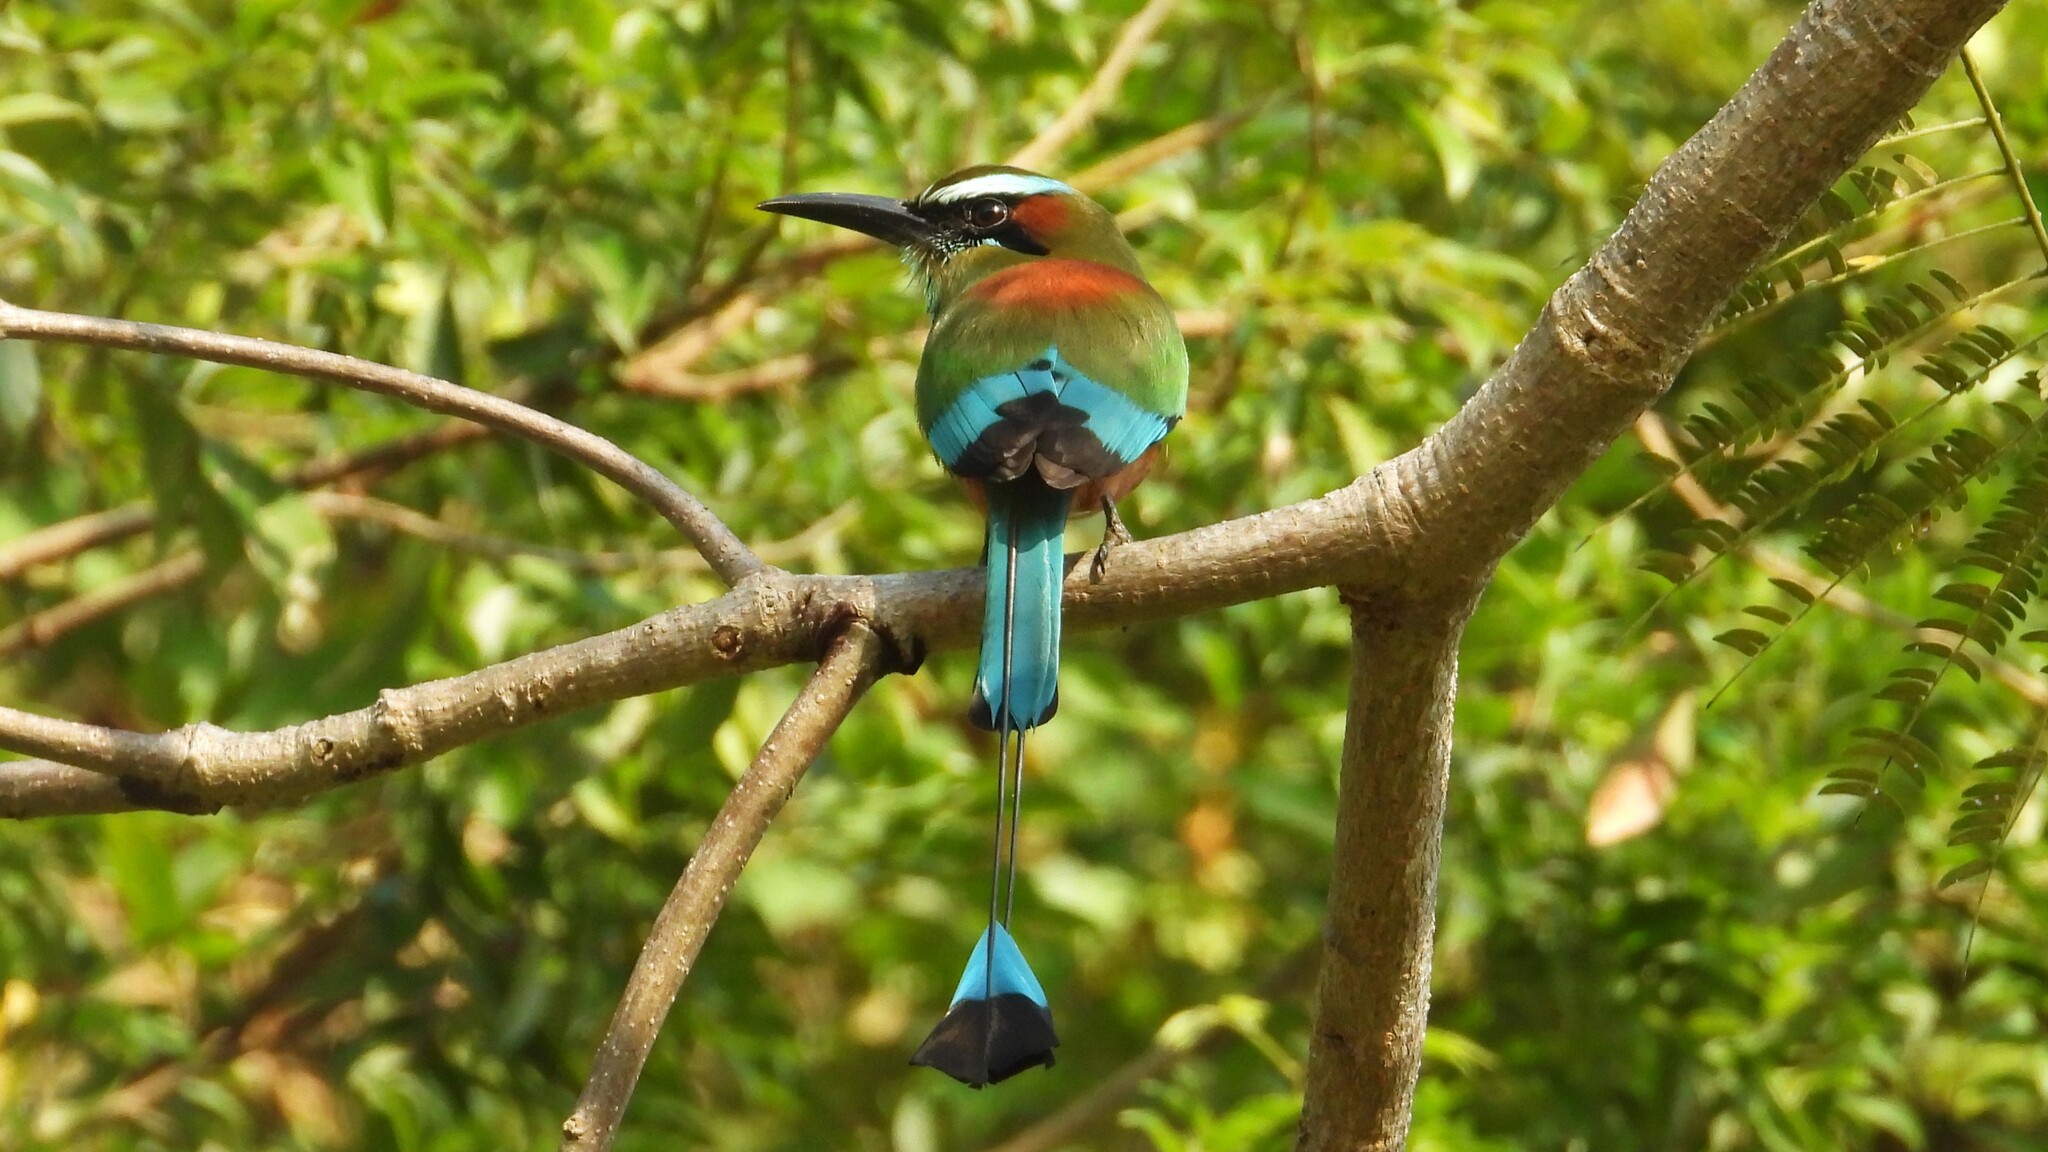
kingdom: Animalia
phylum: Chordata
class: Aves
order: Coraciiformes
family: Momotidae
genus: Eumomota
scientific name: Eumomota superciliosa
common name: Turquoise-browed motmot
